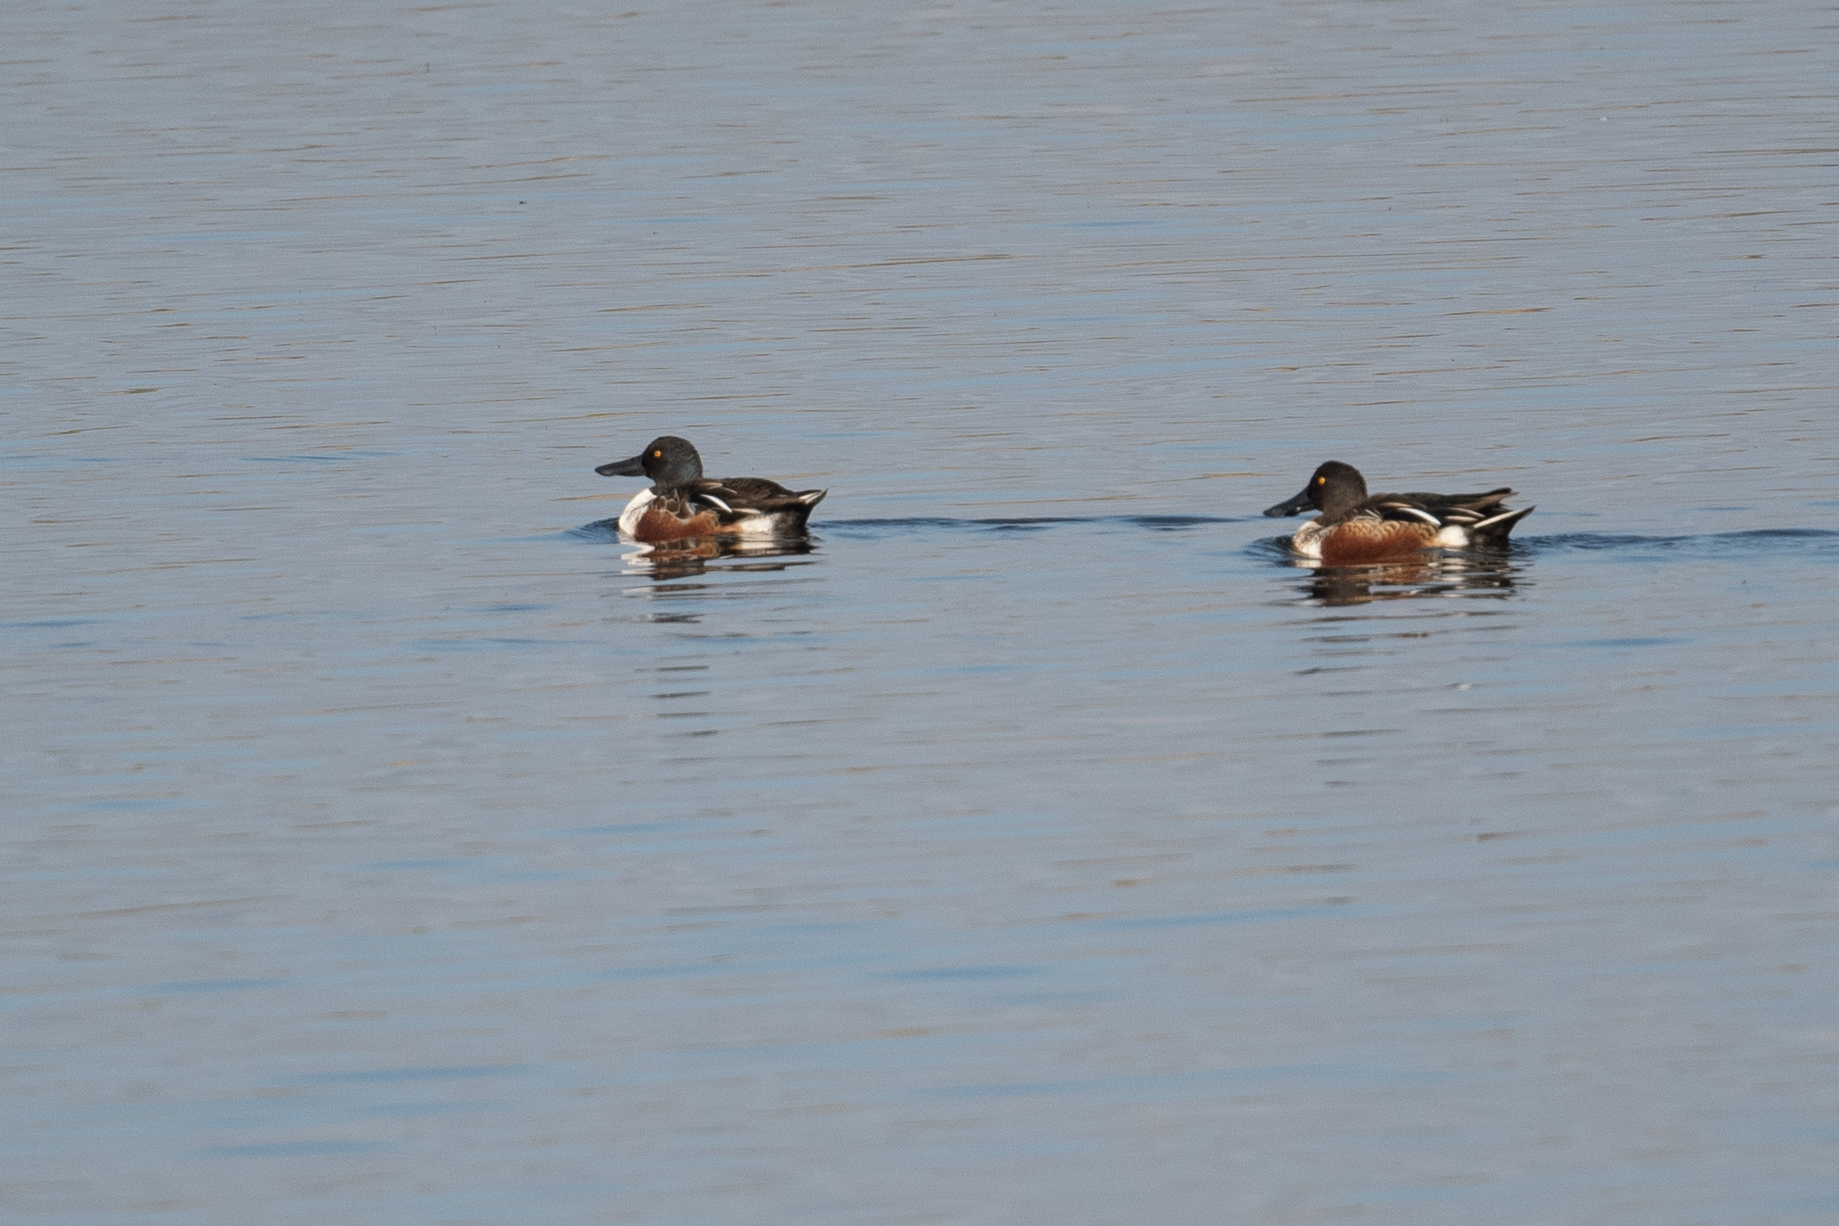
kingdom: Animalia
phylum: Chordata
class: Aves
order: Anseriformes
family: Anatidae
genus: Spatula
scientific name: Spatula clypeata
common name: Northern shoveler
